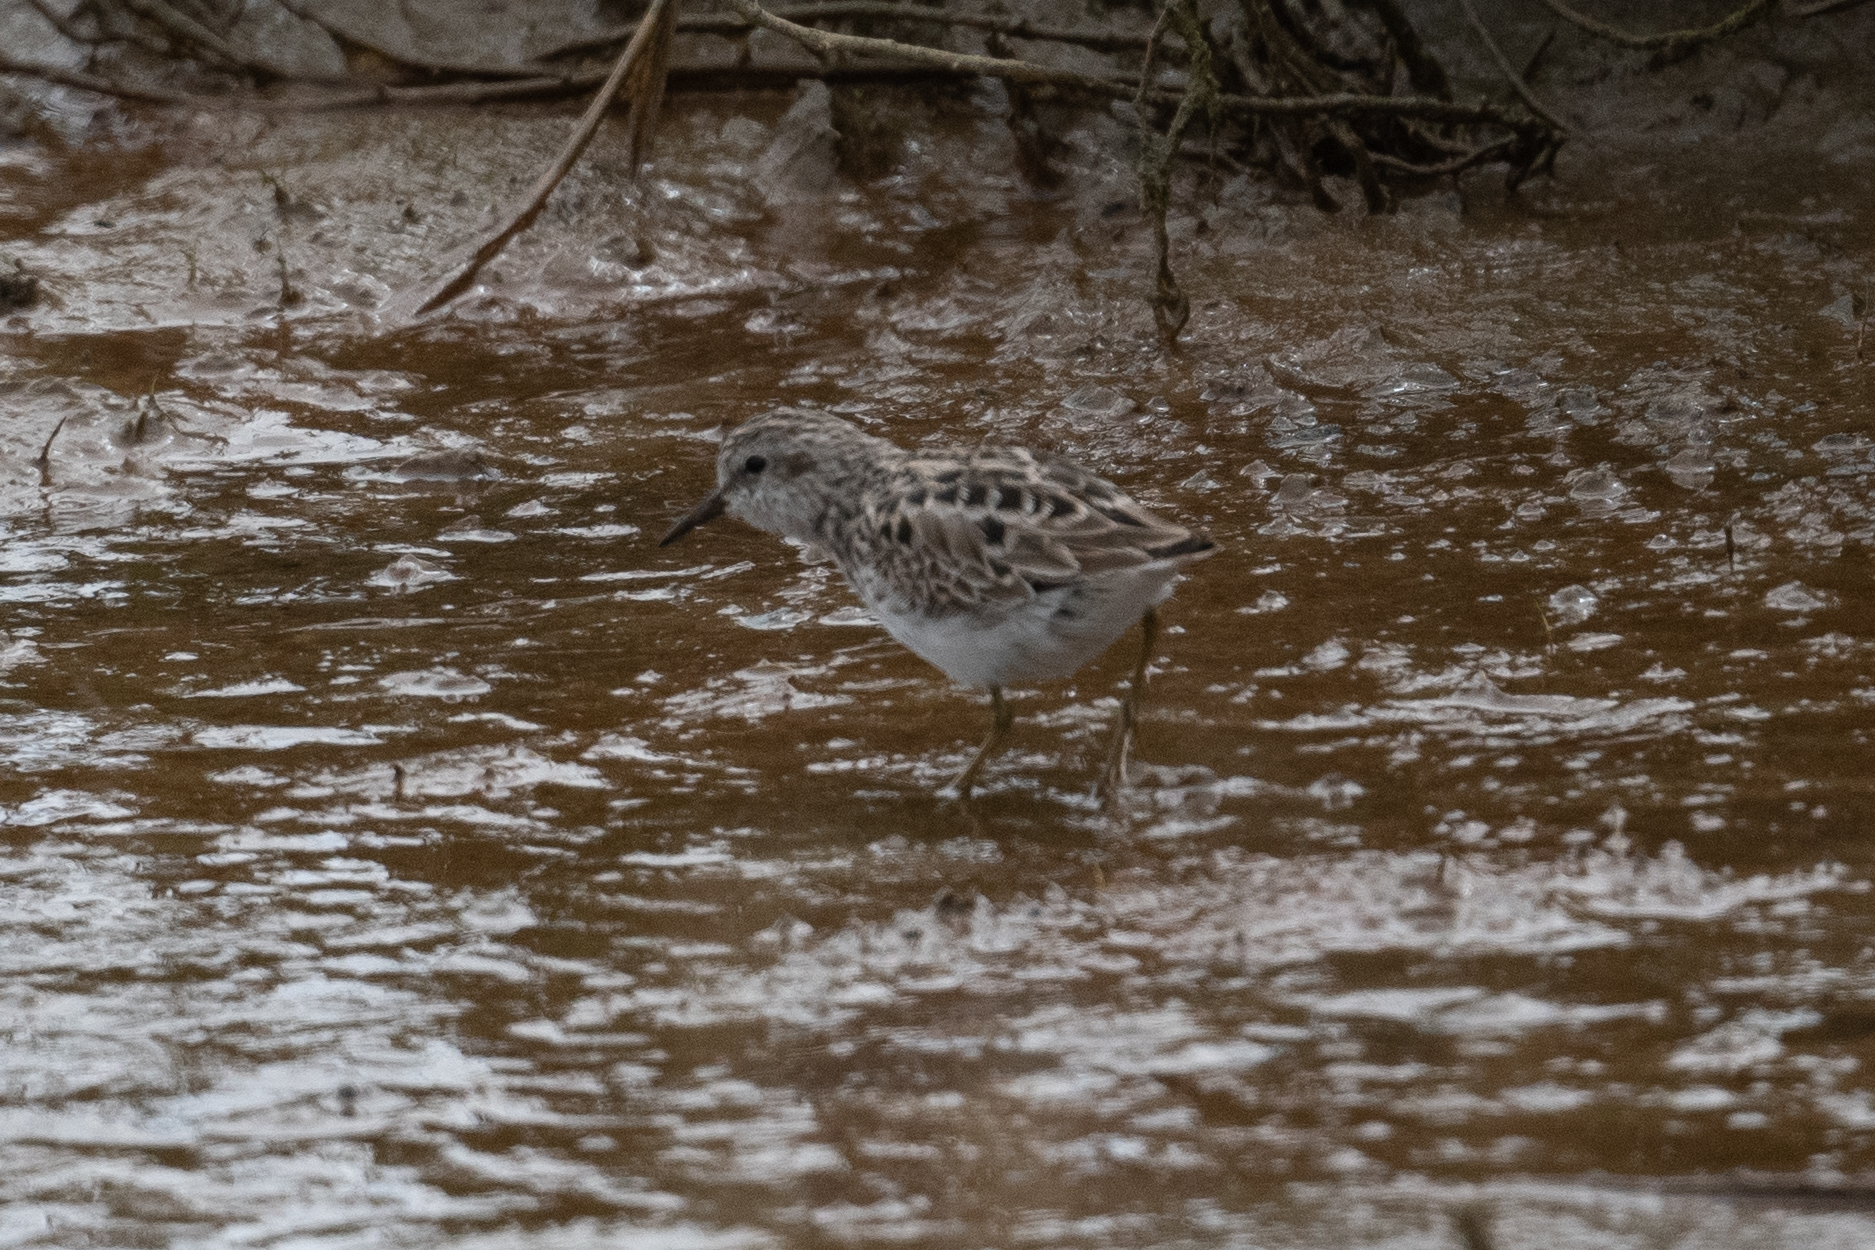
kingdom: Animalia
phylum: Chordata
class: Aves
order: Charadriiformes
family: Scolopacidae
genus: Calidris
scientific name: Calidris minutilla
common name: Least sandpiper
